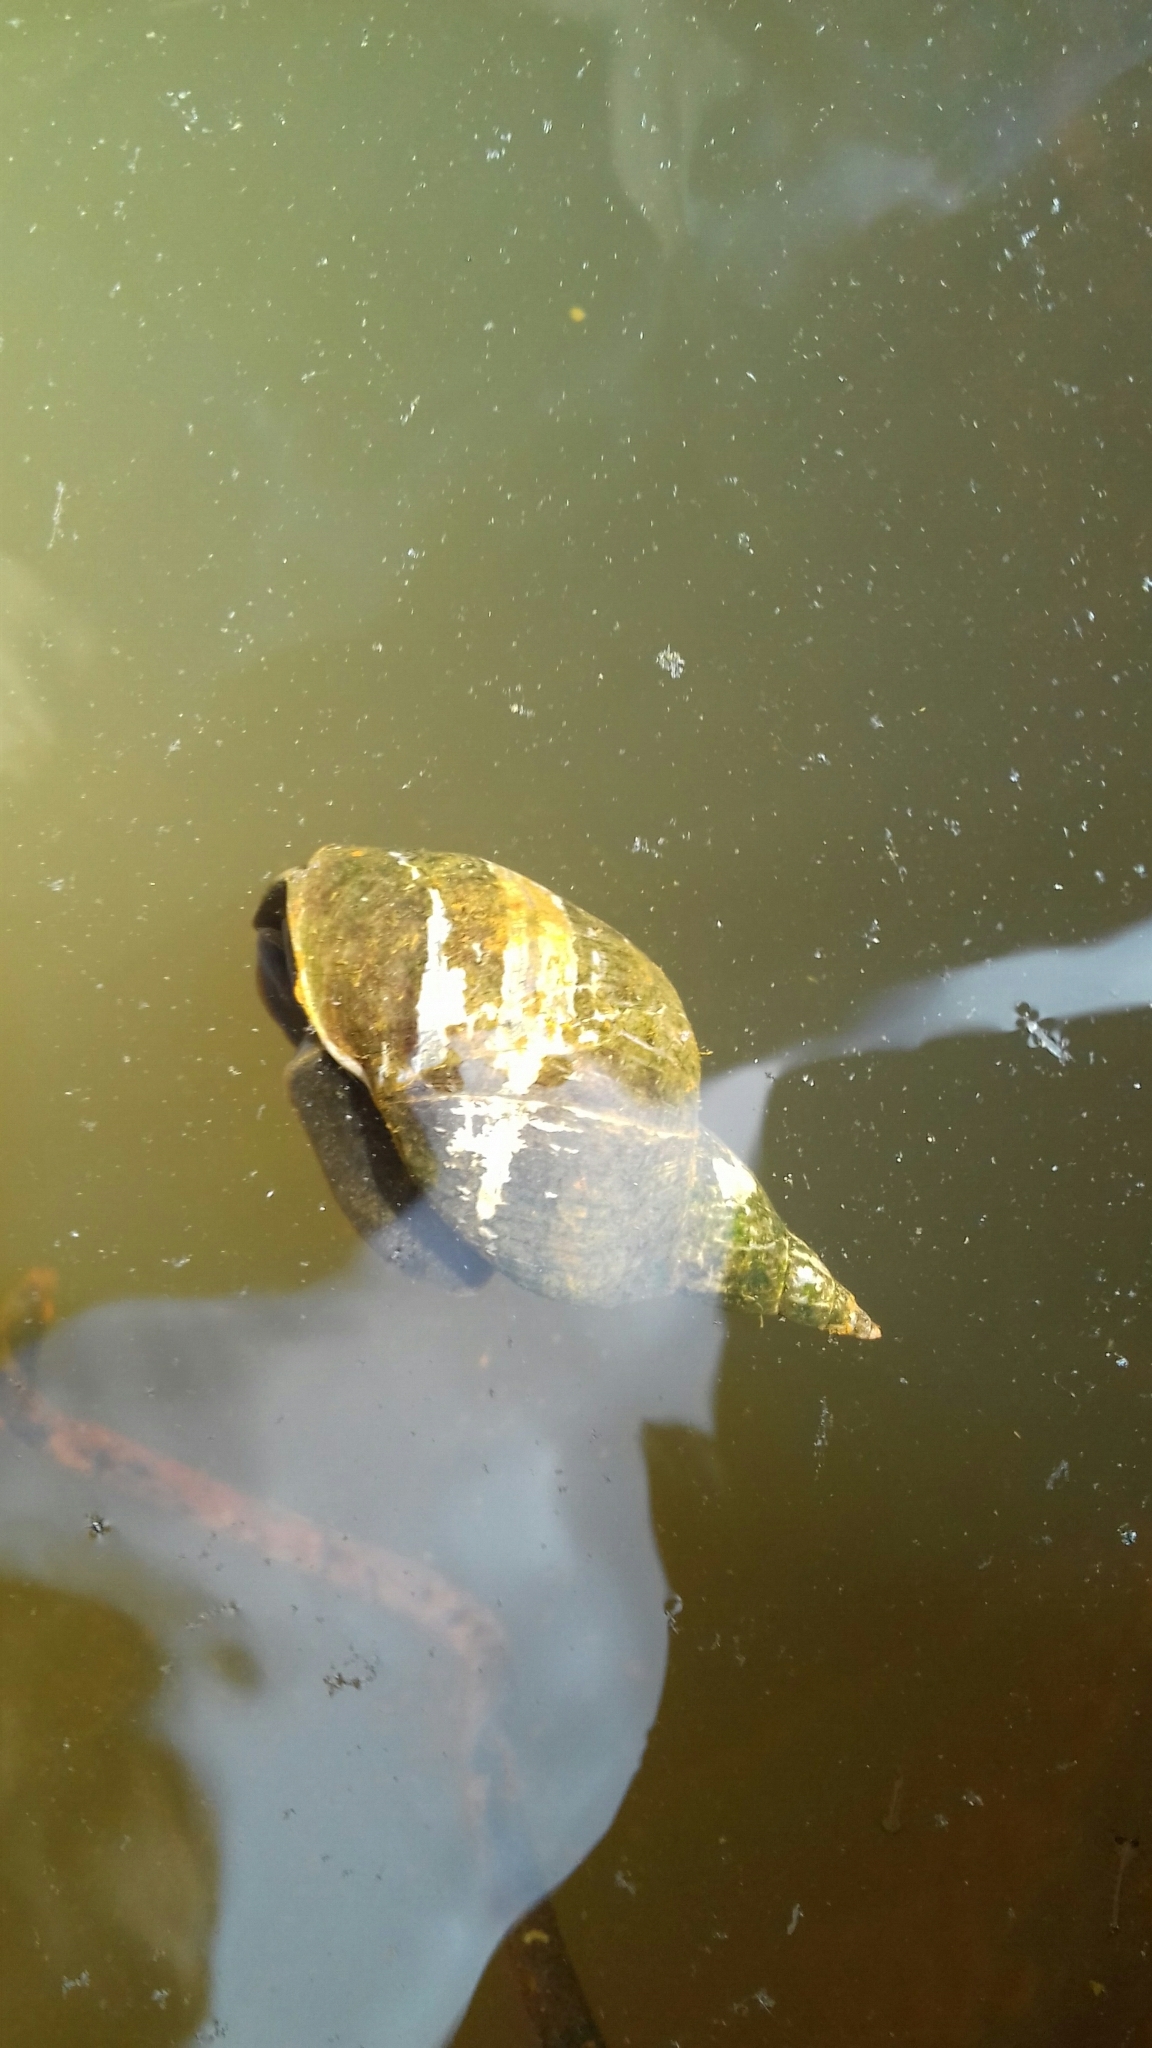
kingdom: Animalia
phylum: Mollusca
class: Gastropoda
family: Lymnaeidae
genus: Lymnaea
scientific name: Lymnaea stagnalis
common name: Great pond snail
